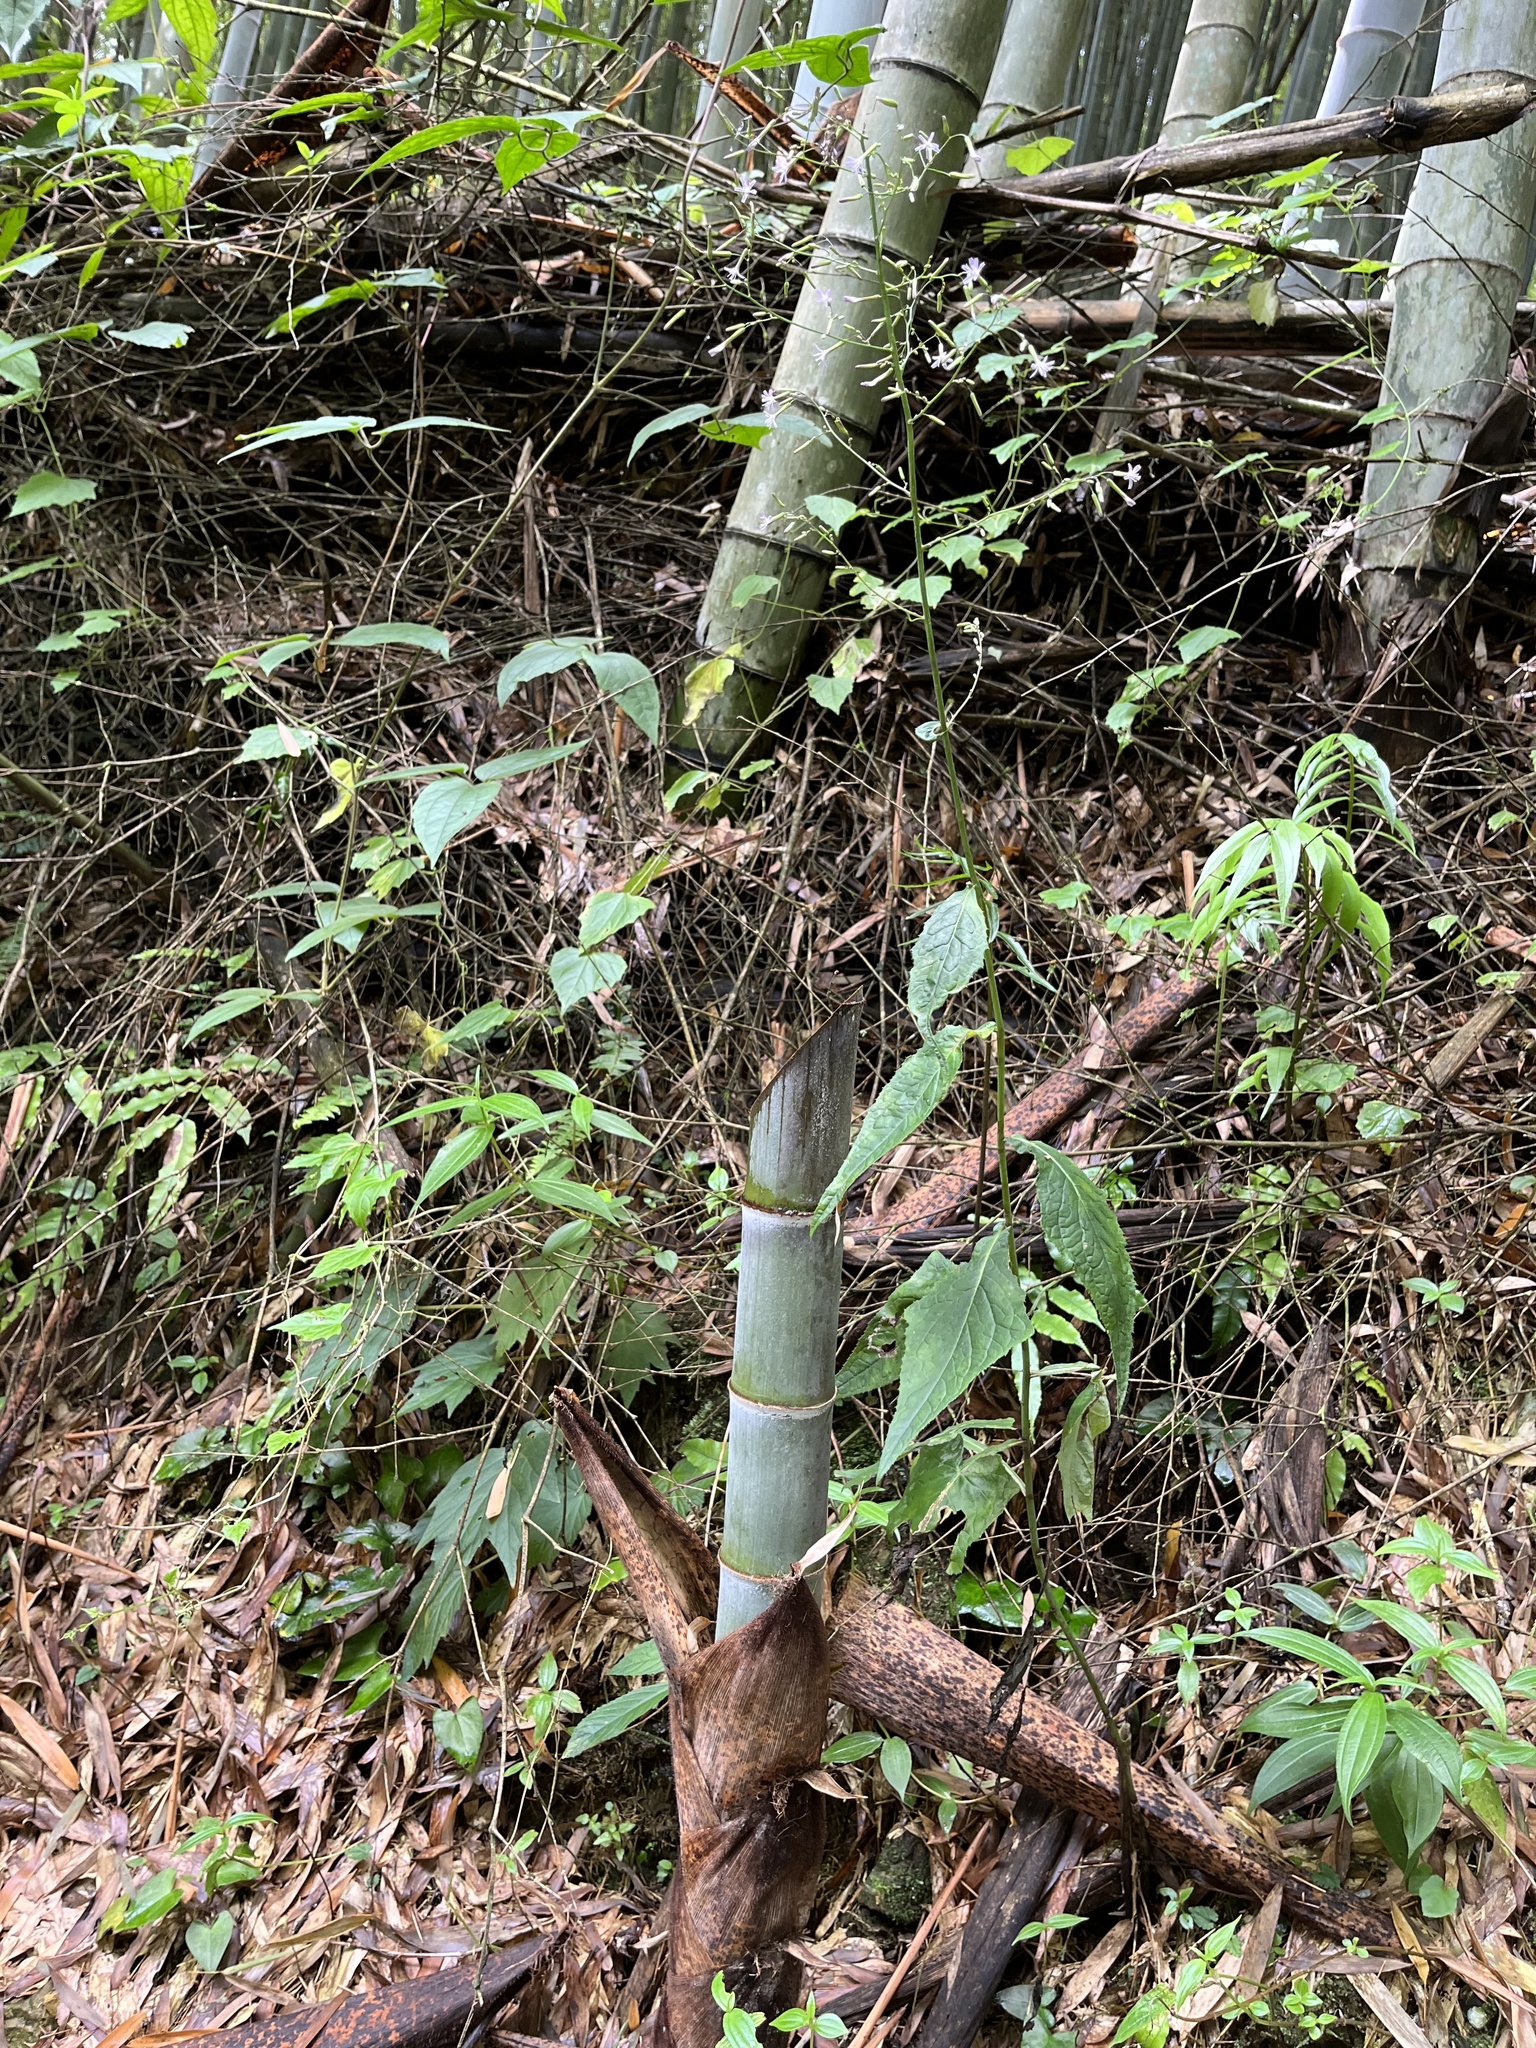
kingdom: Plantae
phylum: Tracheophyta
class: Magnoliopsida
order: Asterales
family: Asteraceae
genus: Paraprenanthes
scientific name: Paraprenanthes sororia
